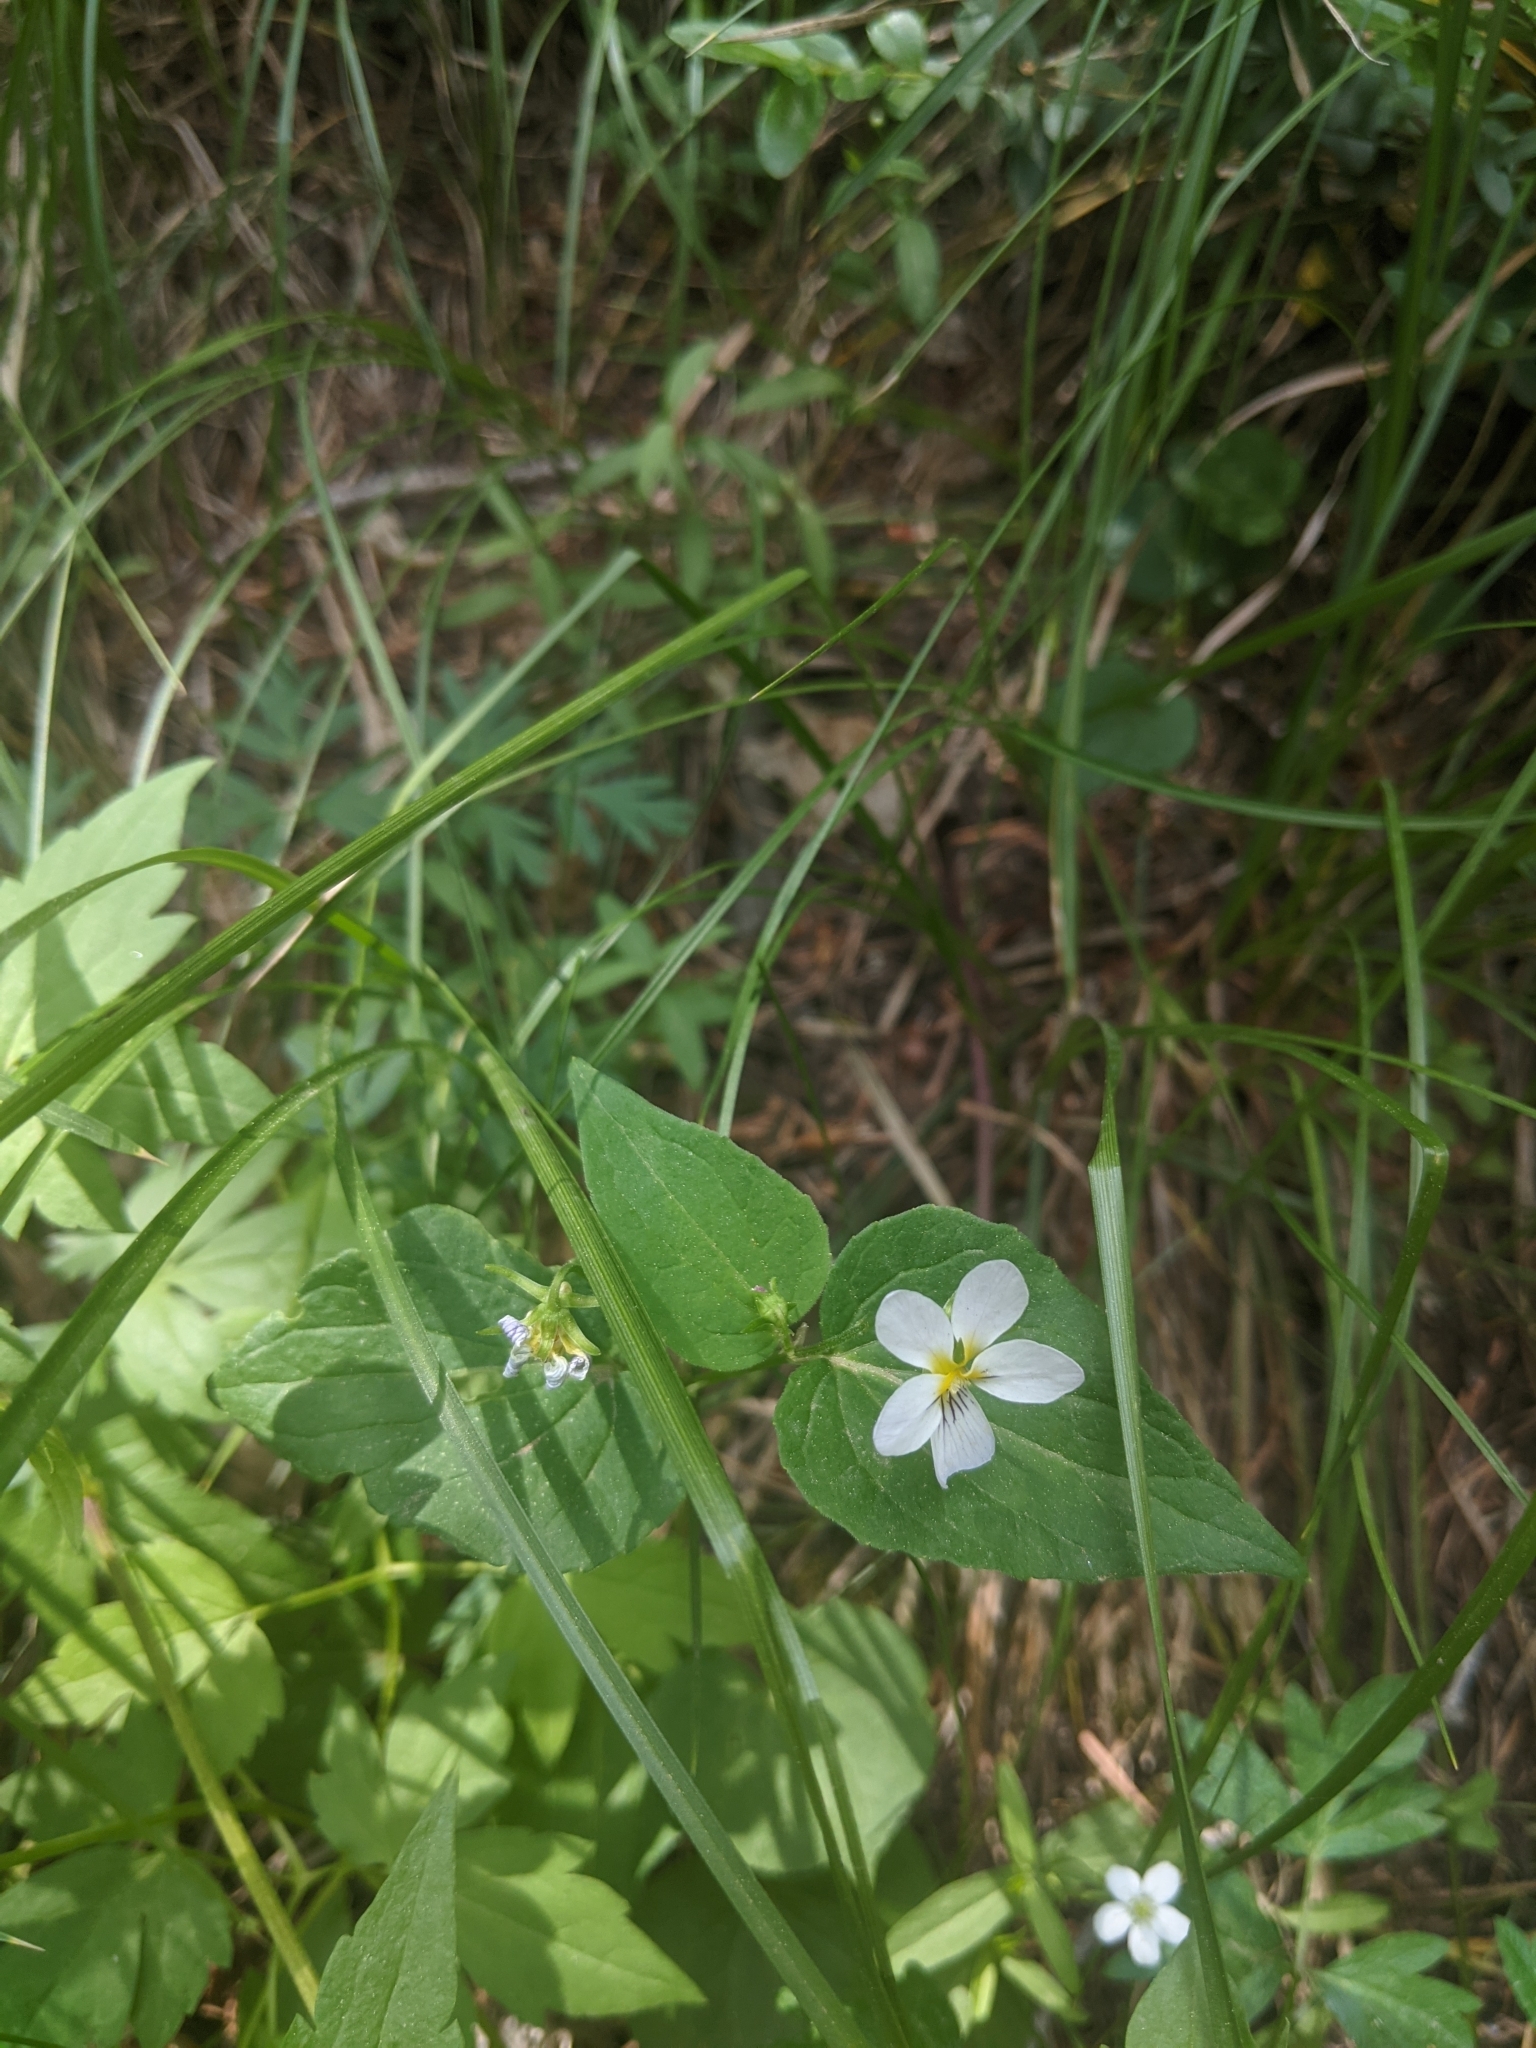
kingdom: Plantae
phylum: Tracheophyta
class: Magnoliopsida
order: Malpighiales
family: Violaceae
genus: Viola
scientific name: Viola scopulorum
